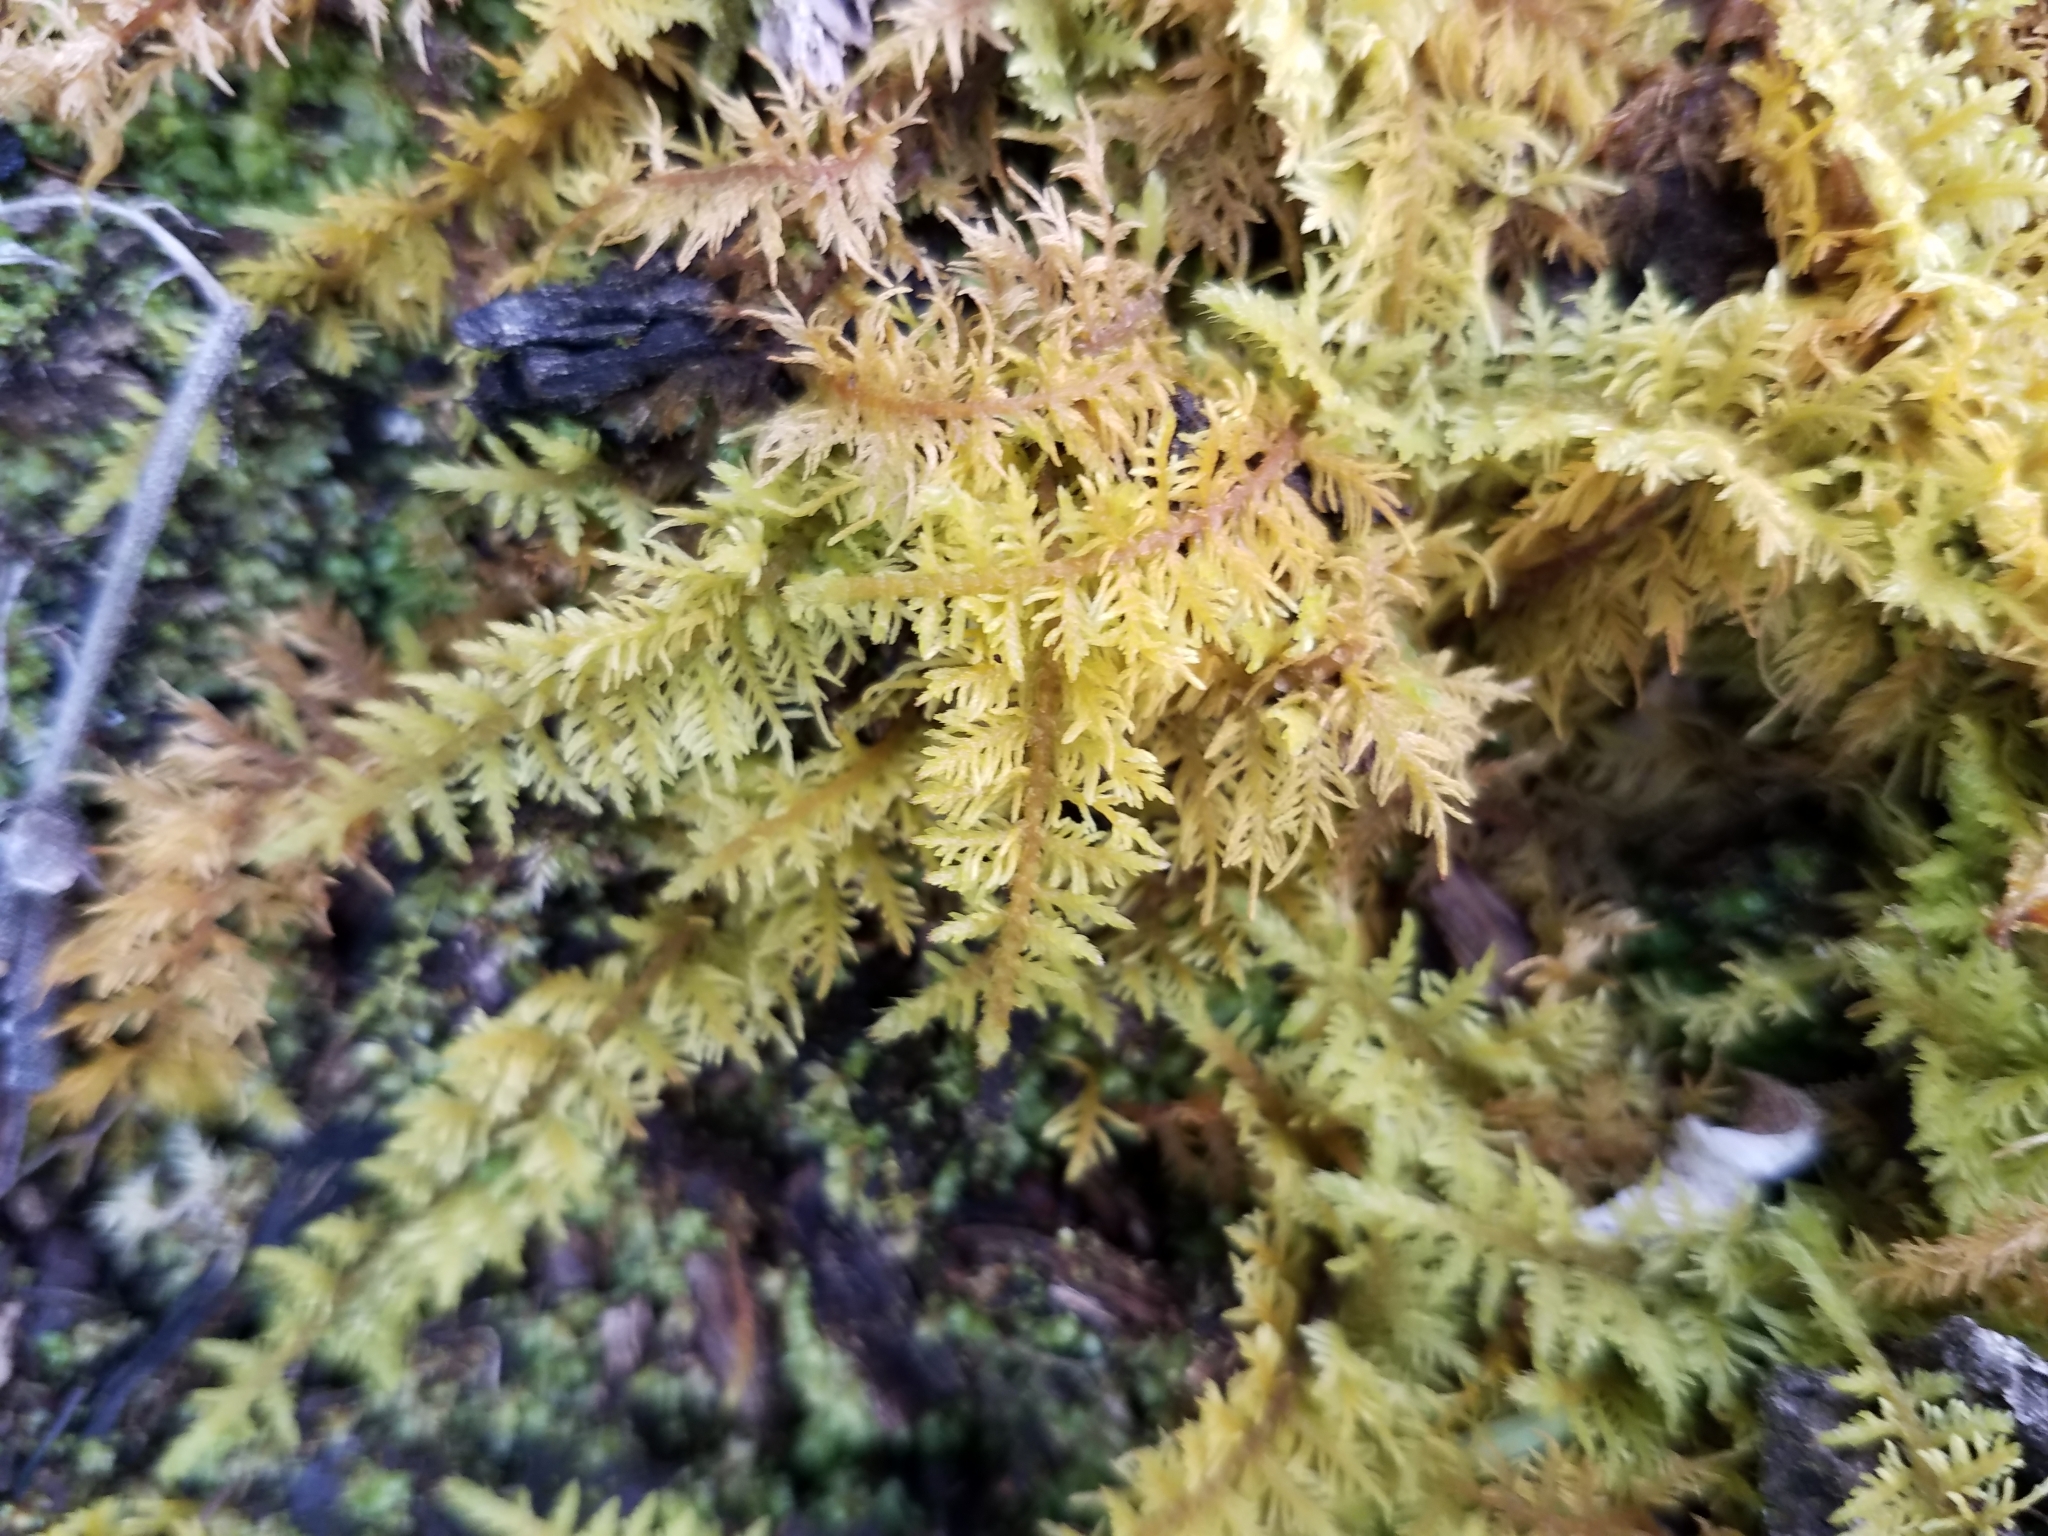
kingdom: Plantae
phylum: Bryophyta
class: Bryopsida
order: Hypnales
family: Thuidiaceae
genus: Thuidium
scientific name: Thuidium delicatulum
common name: Delicate fern moss
